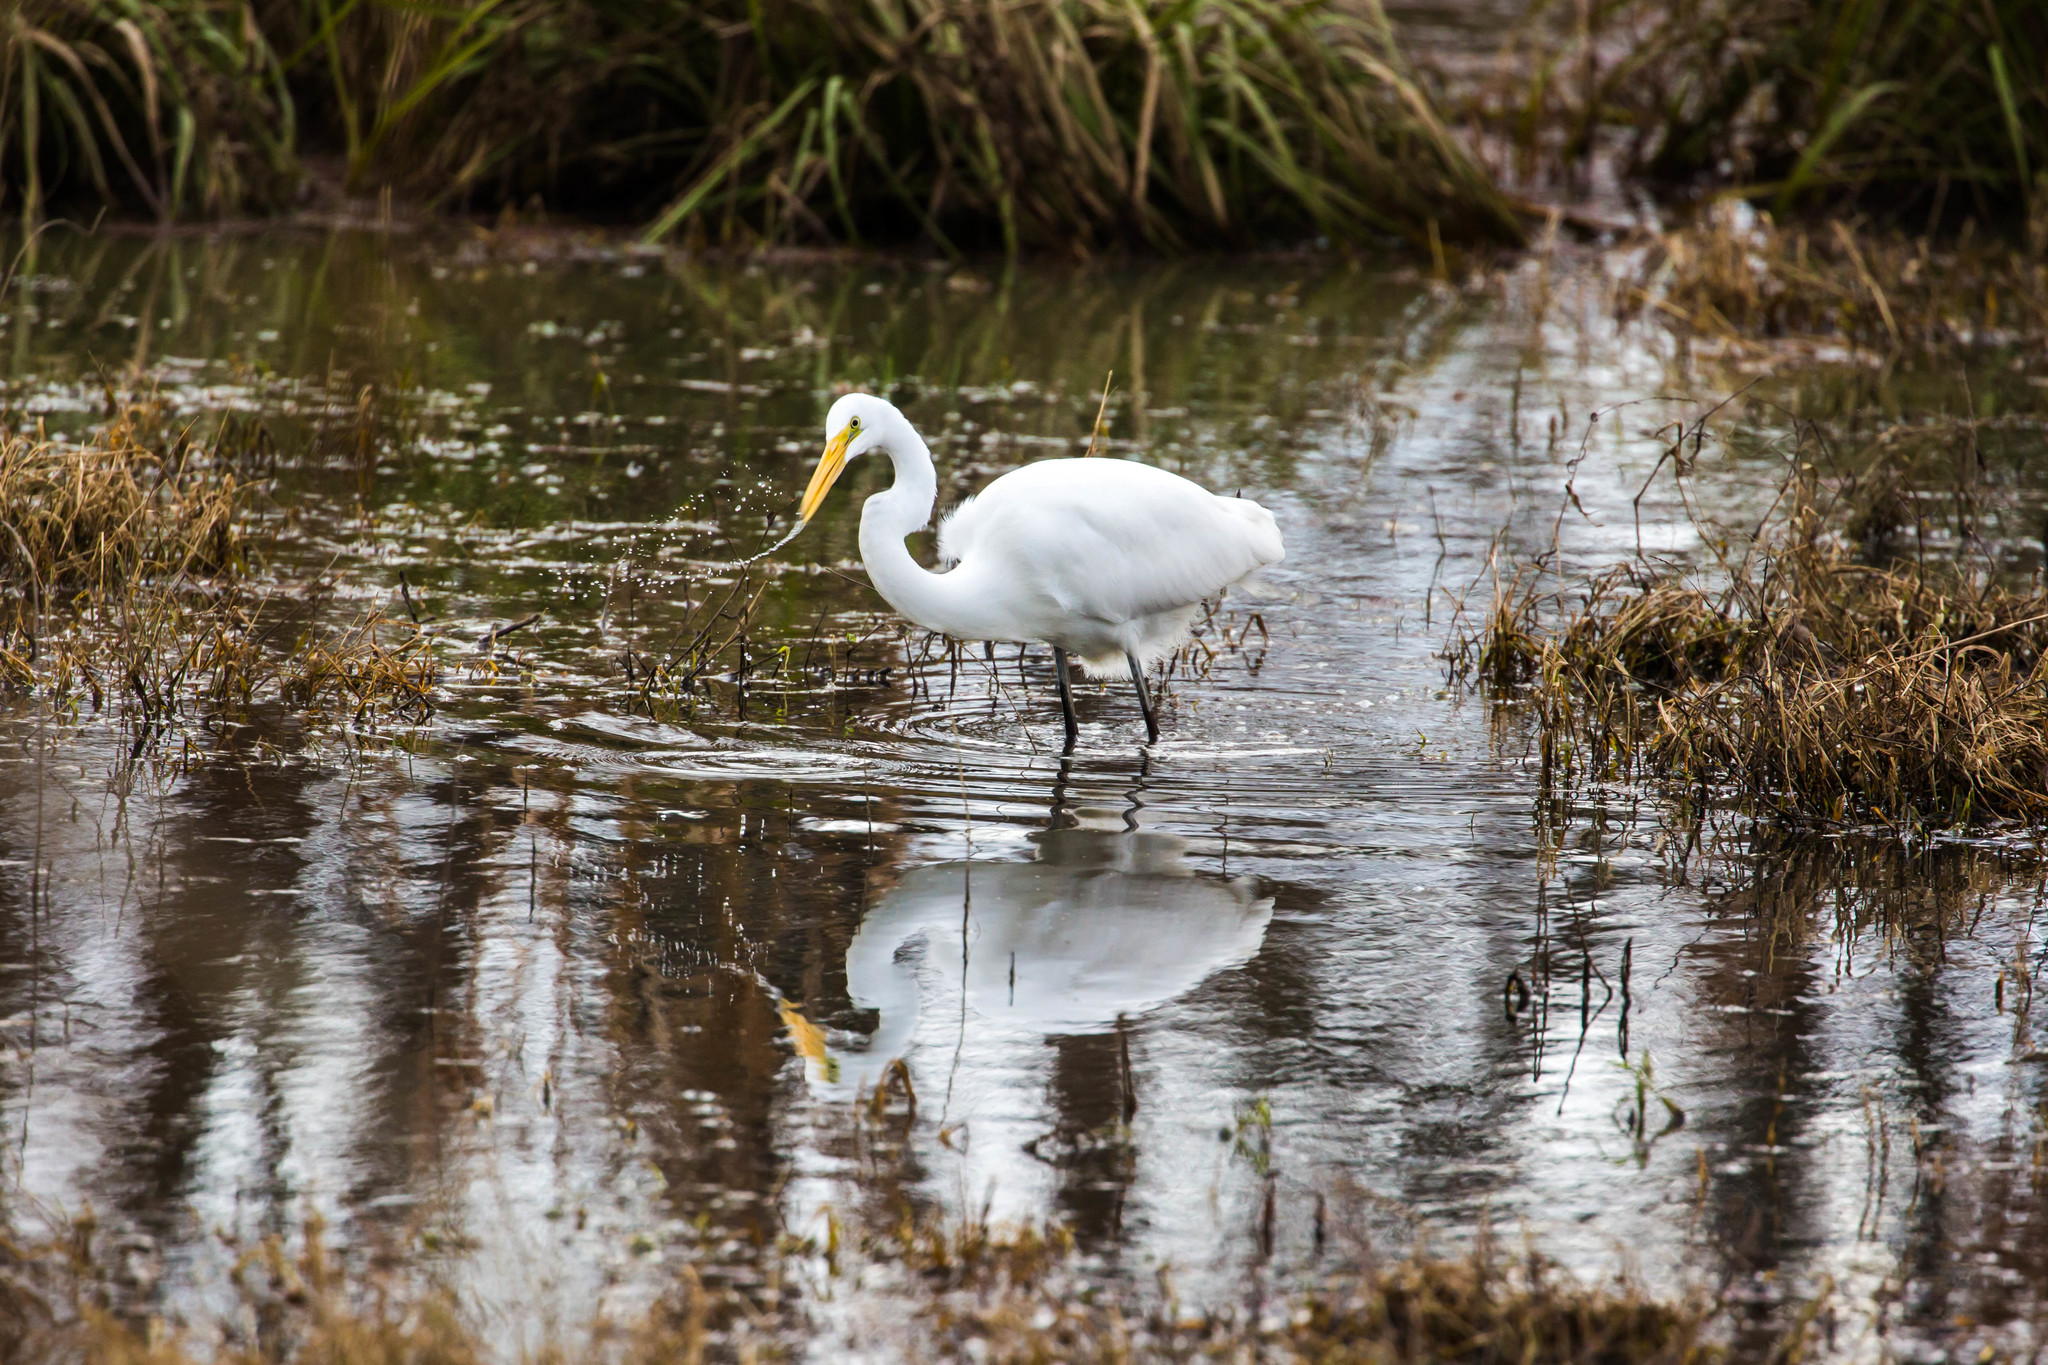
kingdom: Animalia
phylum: Chordata
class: Aves
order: Pelecaniformes
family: Ardeidae
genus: Ardea
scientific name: Ardea alba
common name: Great egret
